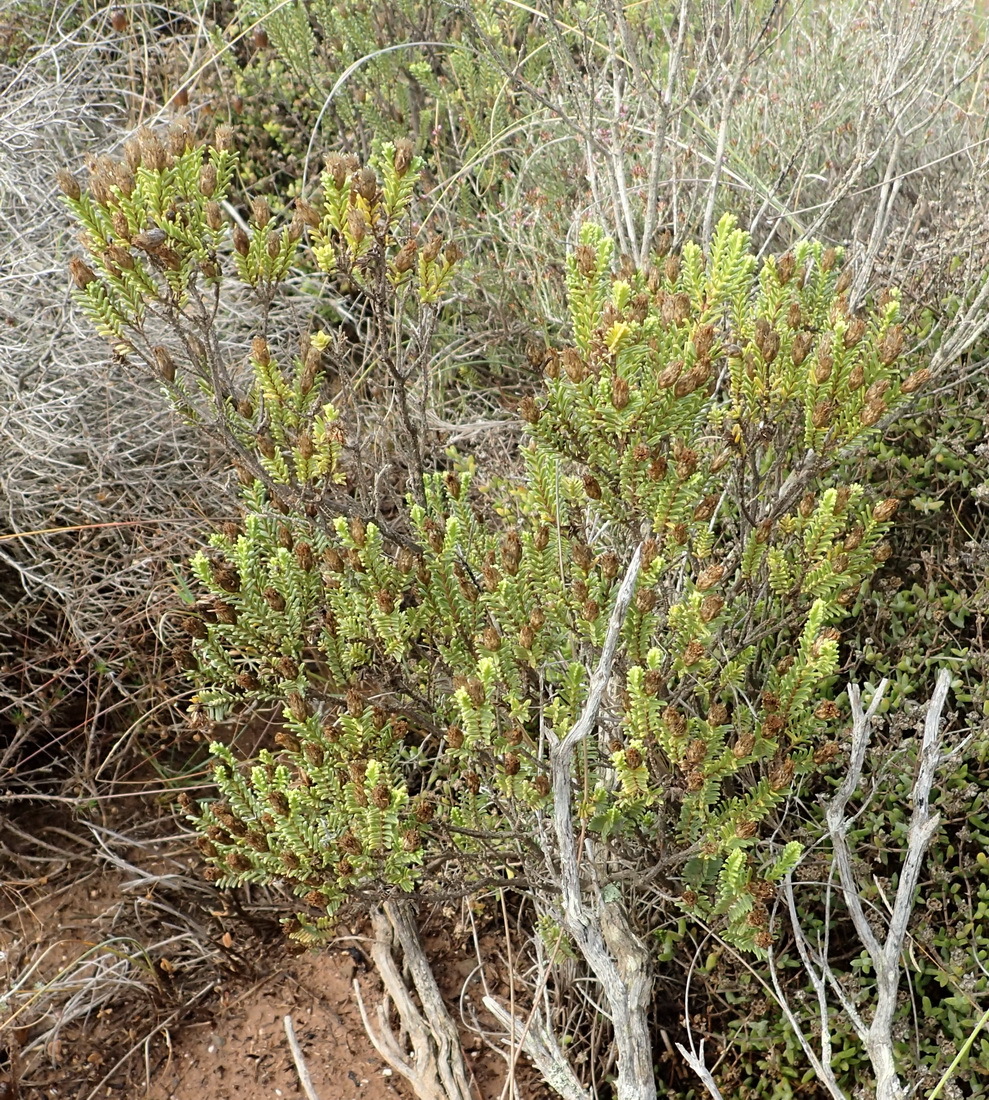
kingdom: Plantae
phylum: Tracheophyta
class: Magnoliopsida
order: Asterales
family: Asteraceae
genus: Oedera
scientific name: Oedera uniflora
